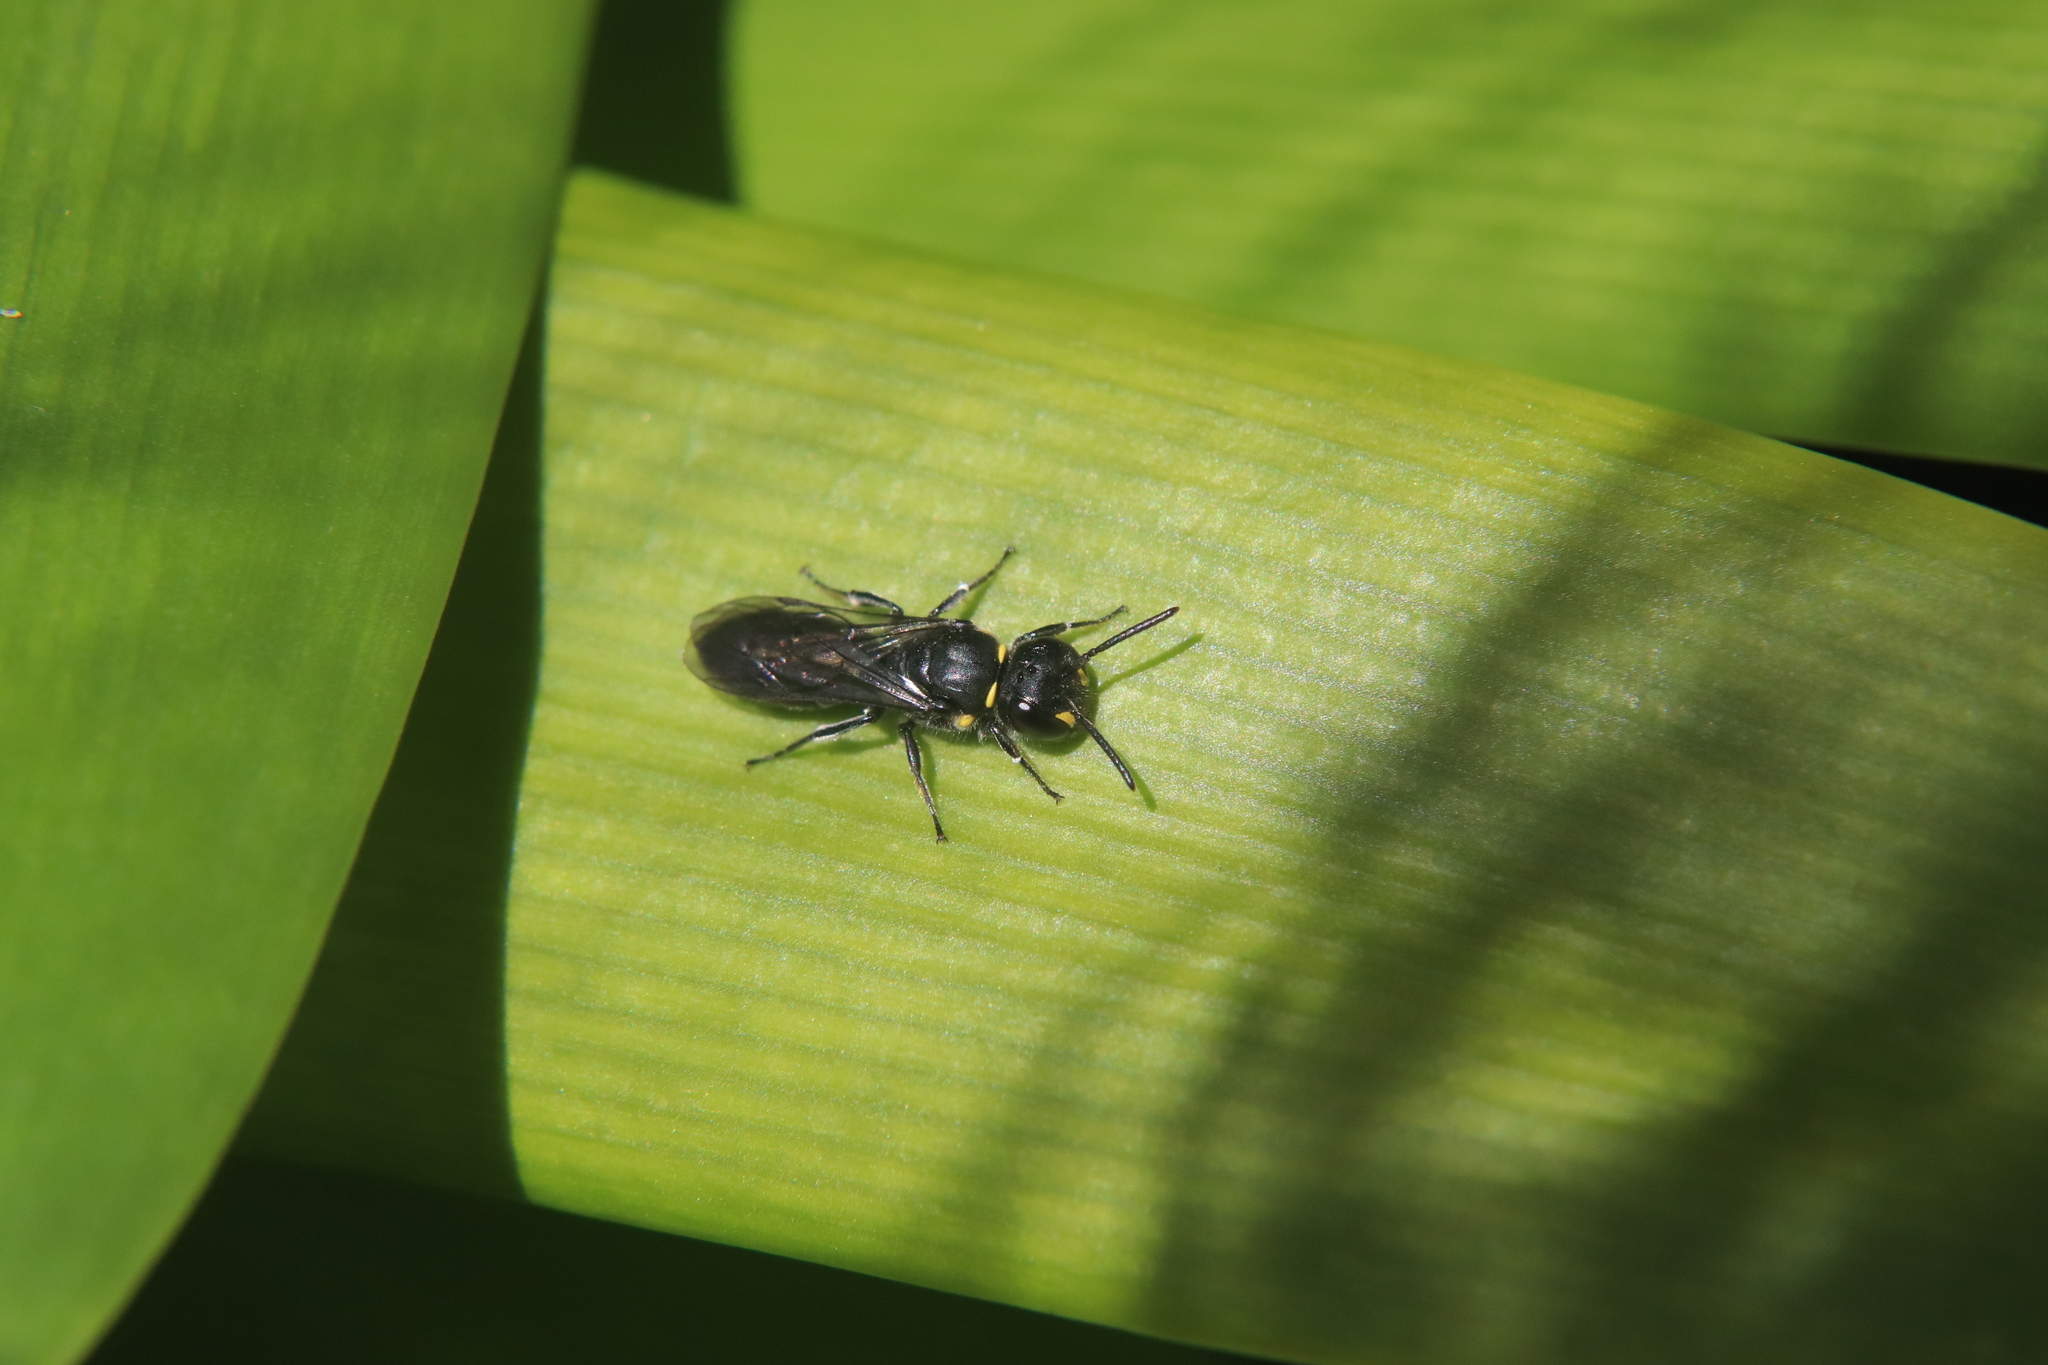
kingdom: Animalia
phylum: Arthropoda
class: Insecta
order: Hymenoptera
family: Colletidae
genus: Hylaeus
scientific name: Hylaeus relegatus
